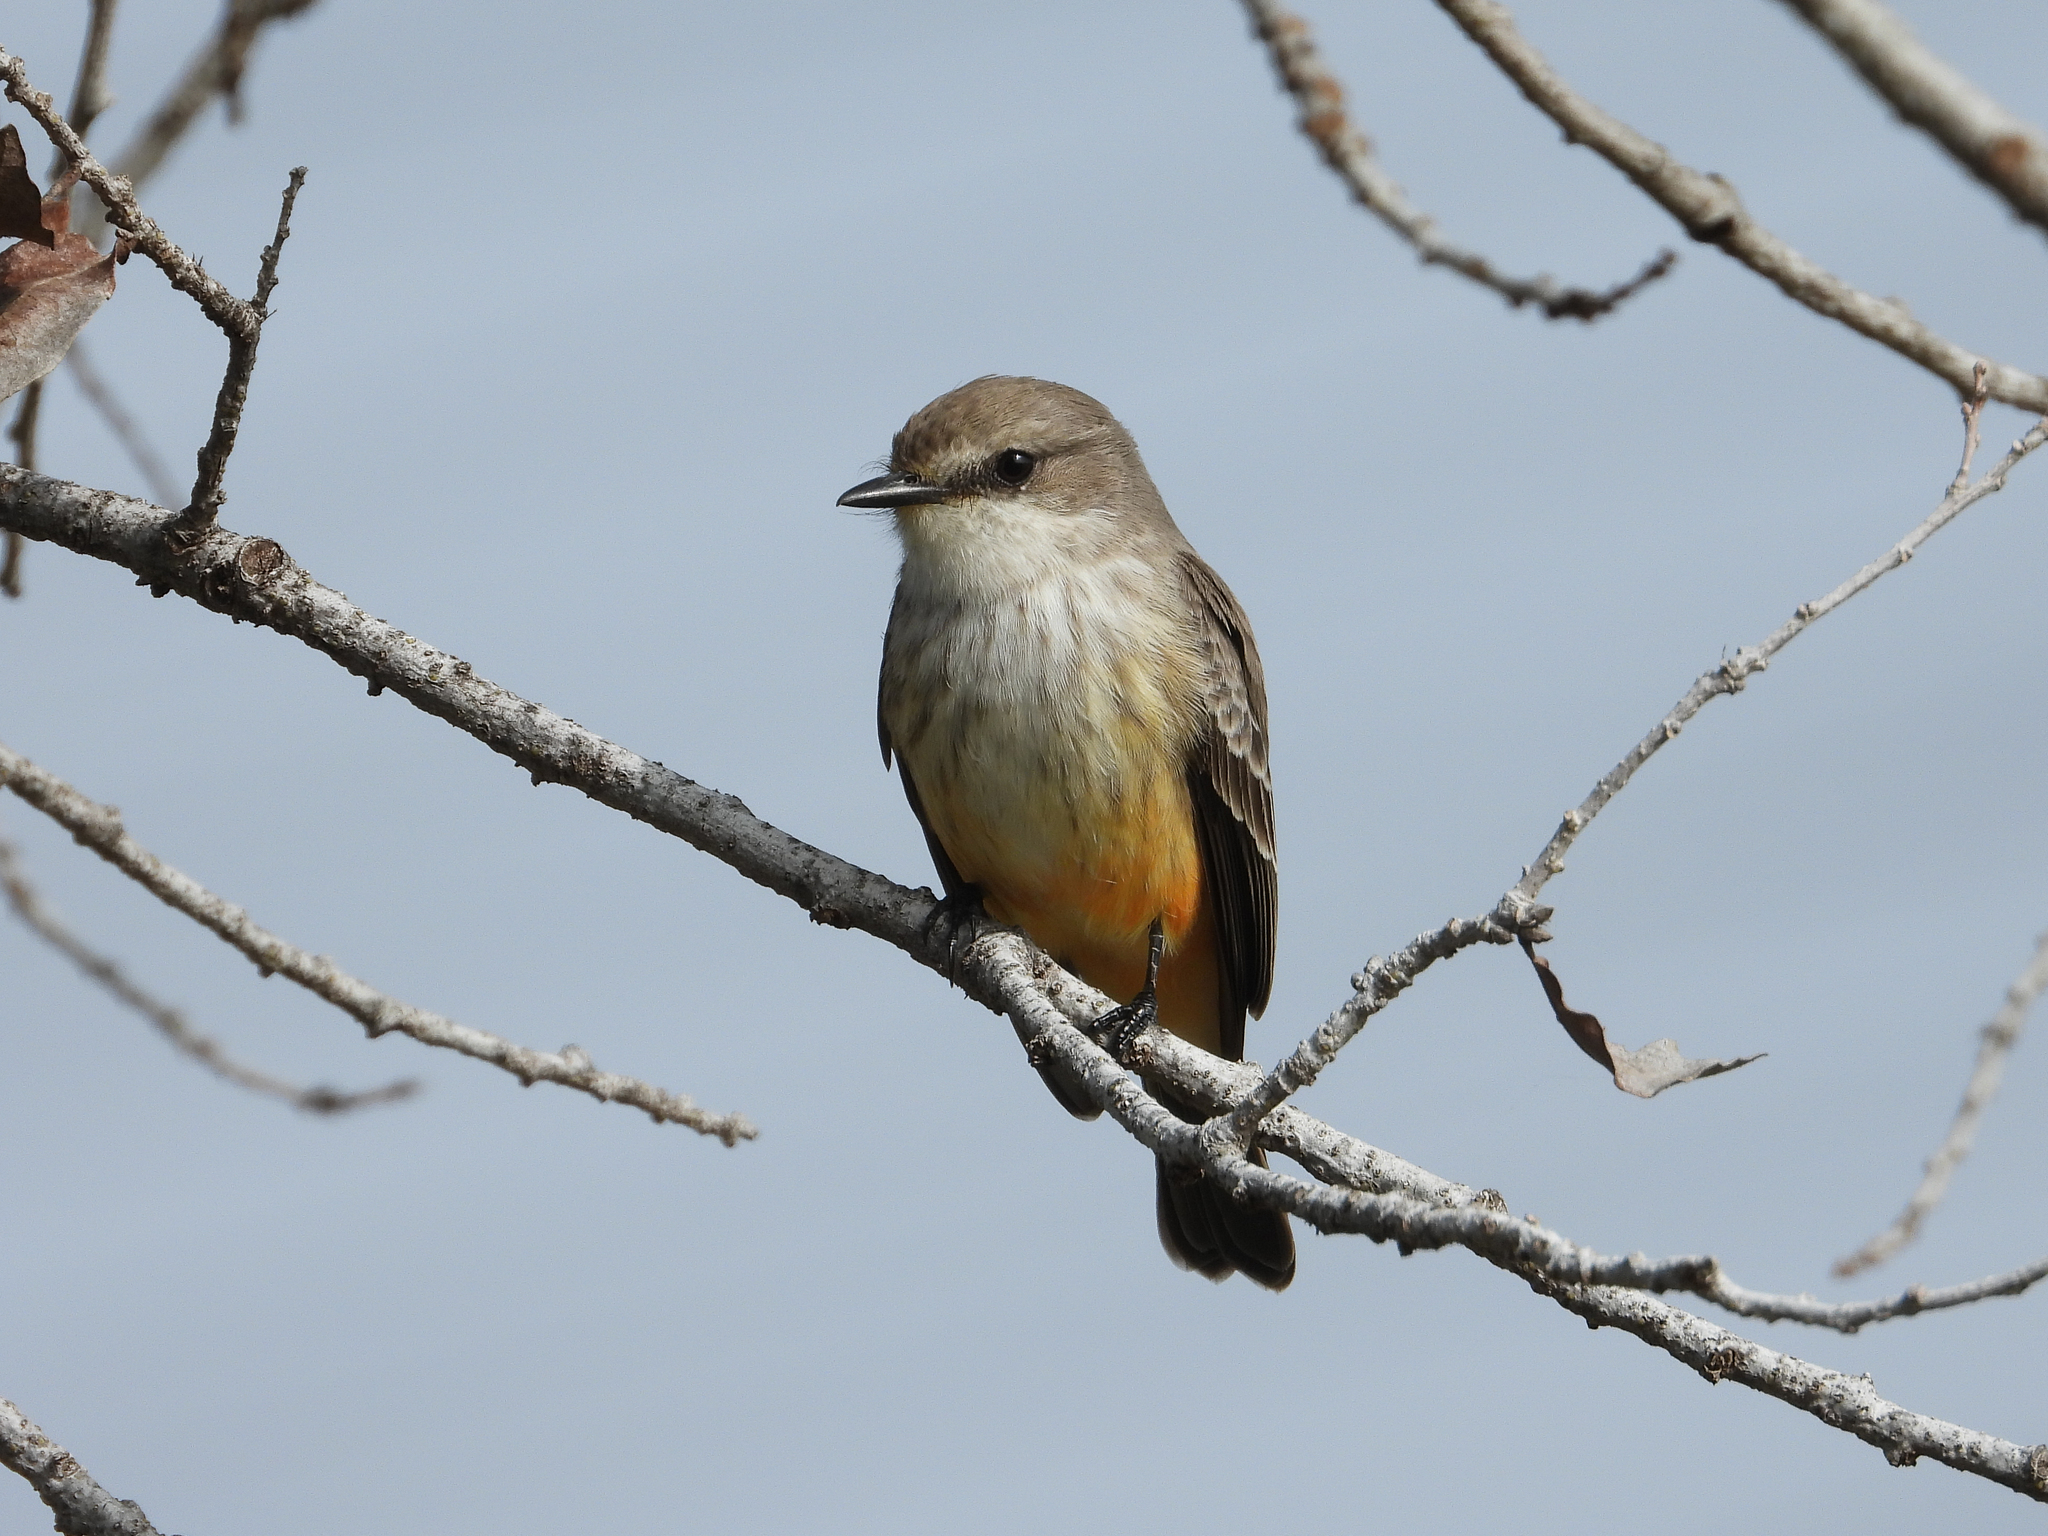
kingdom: Animalia
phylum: Chordata
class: Aves
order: Passeriformes
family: Tyrannidae
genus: Pyrocephalus
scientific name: Pyrocephalus rubinus
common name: Vermilion flycatcher
